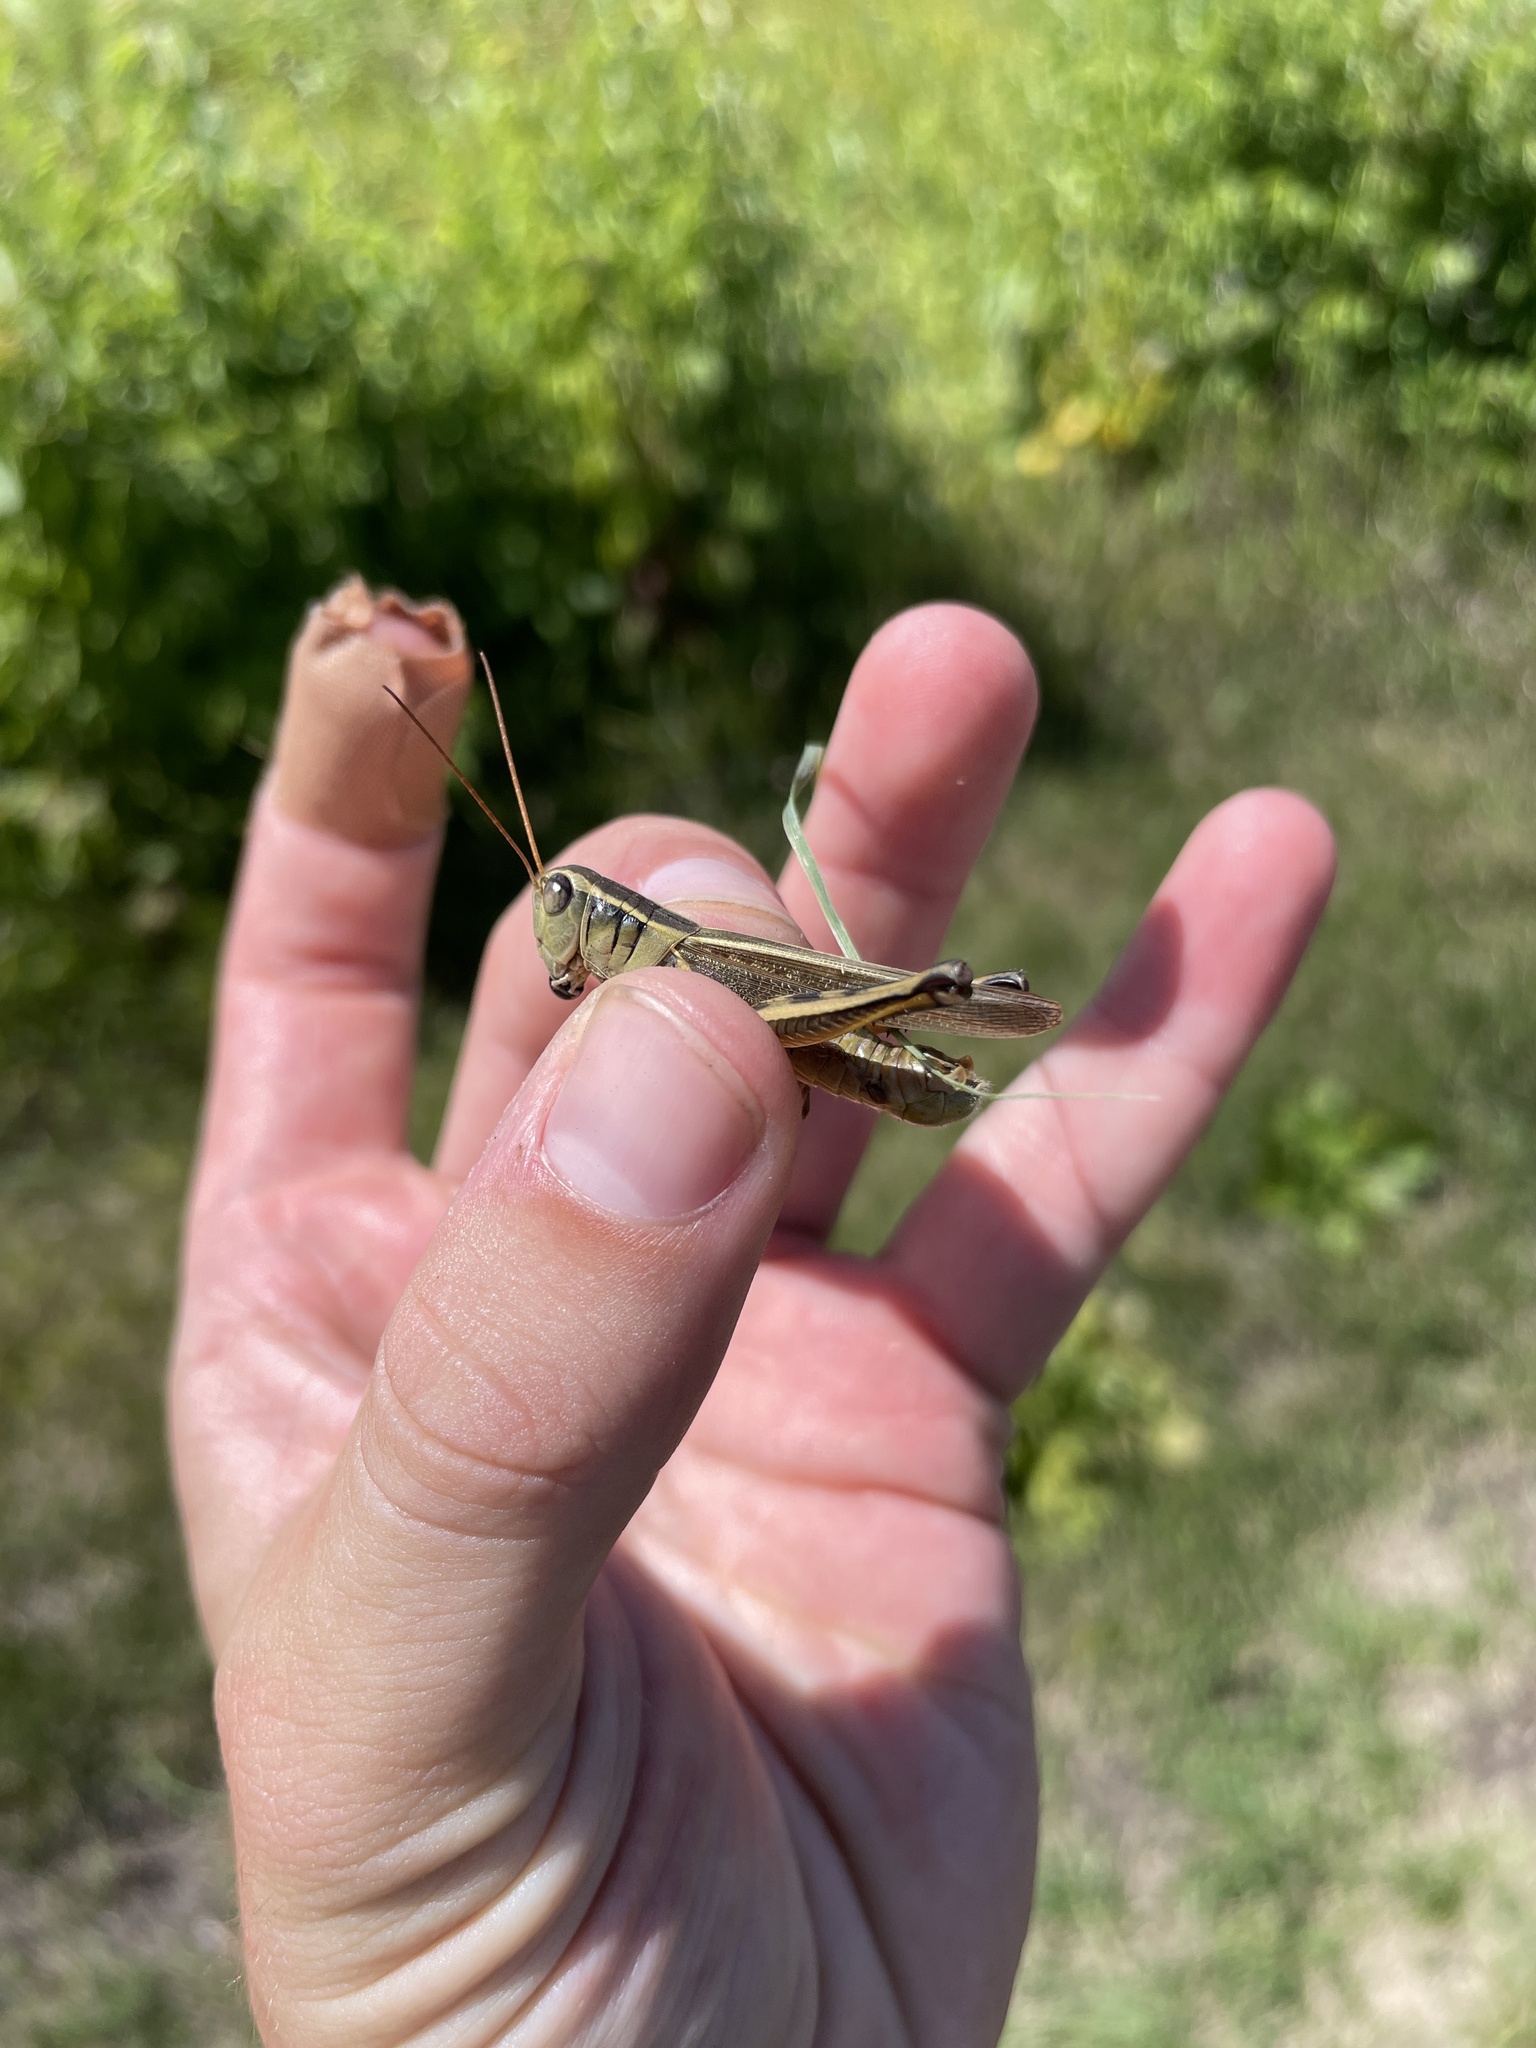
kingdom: Animalia
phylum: Arthropoda
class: Insecta
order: Orthoptera
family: Acrididae
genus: Melanoplus
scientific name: Melanoplus bivittatus
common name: Two-striped grasshopper
